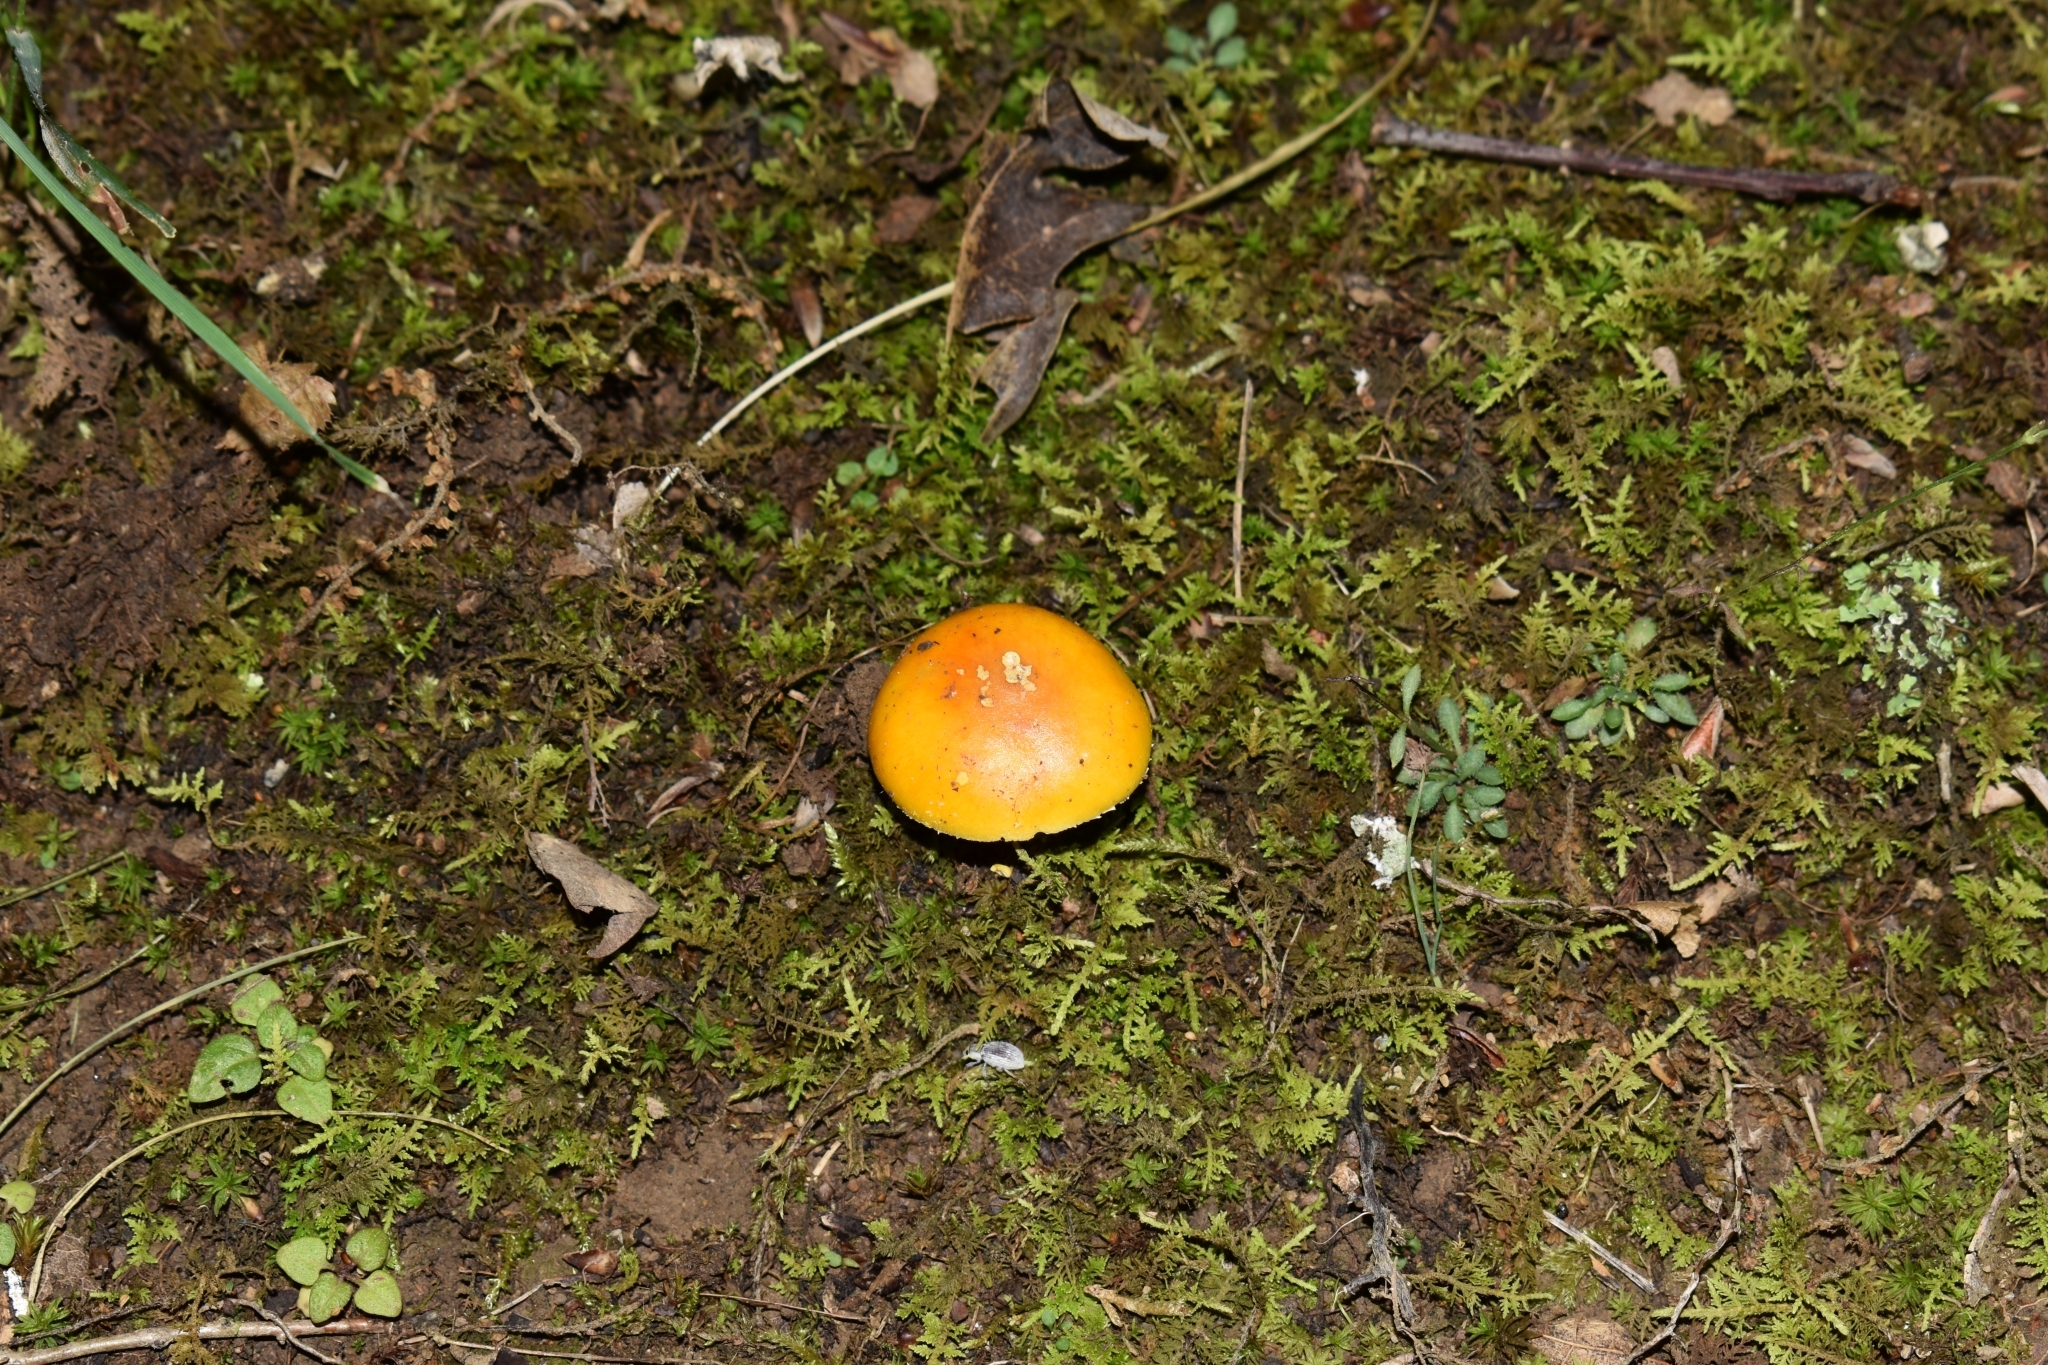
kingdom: Fungi
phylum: Basidiomycota
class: Agaricomycetes
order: Agaricales
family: Amanitaceae
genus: Amanita
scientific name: Amanita flavoconia
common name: Yellow patches
